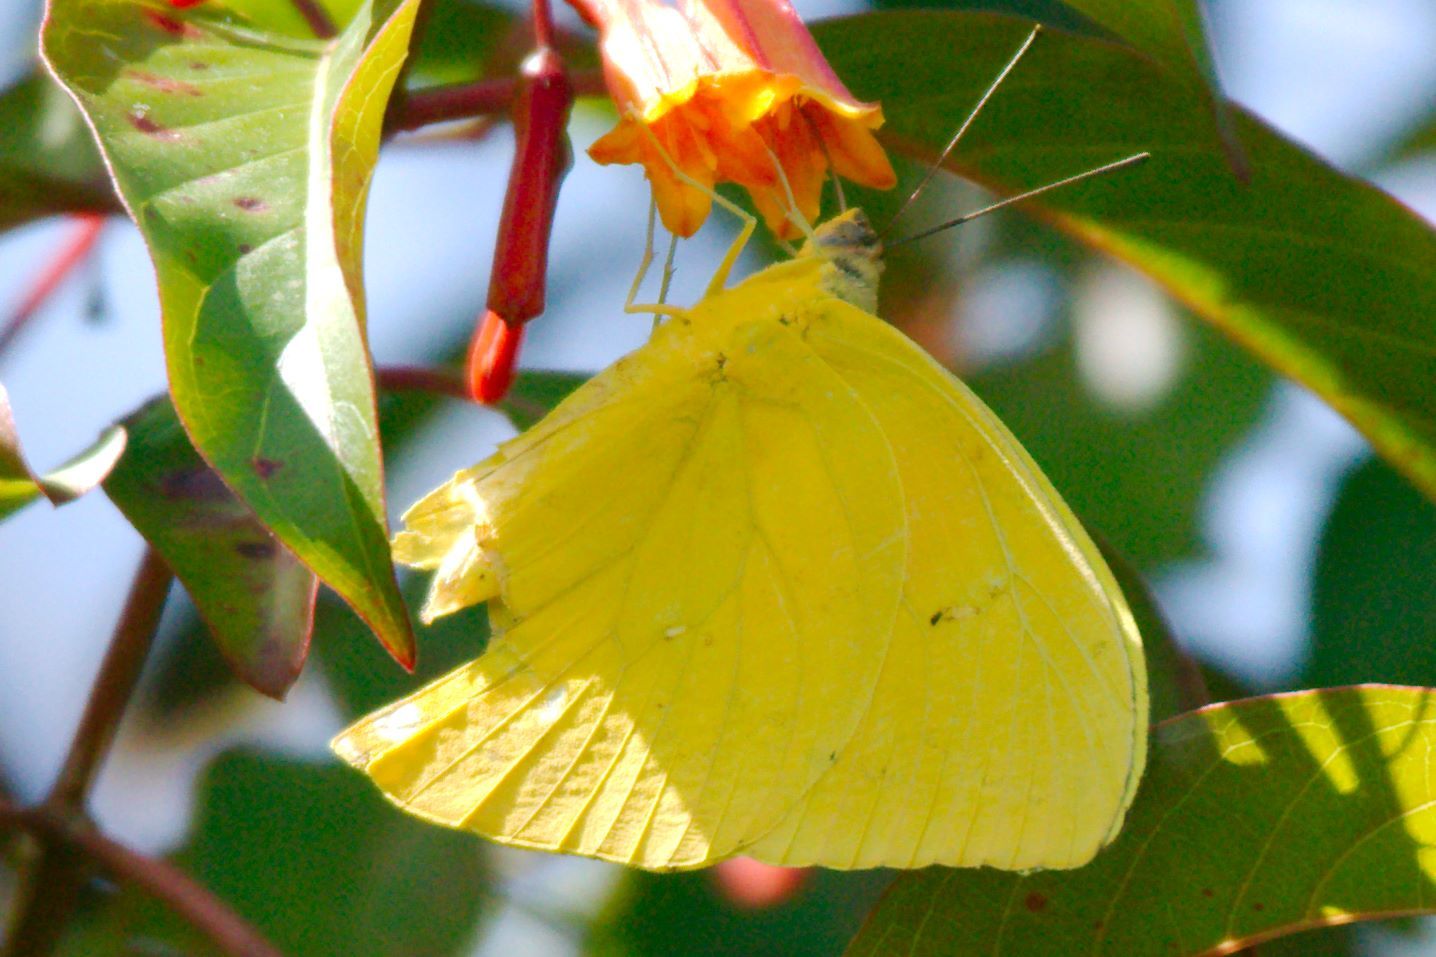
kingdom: Animalia
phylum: Arthropoda
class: Insecta
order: Lepidoptera
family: Pieridae
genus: Aphrissa
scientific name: Aphrissa statira
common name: Statira sulphur
